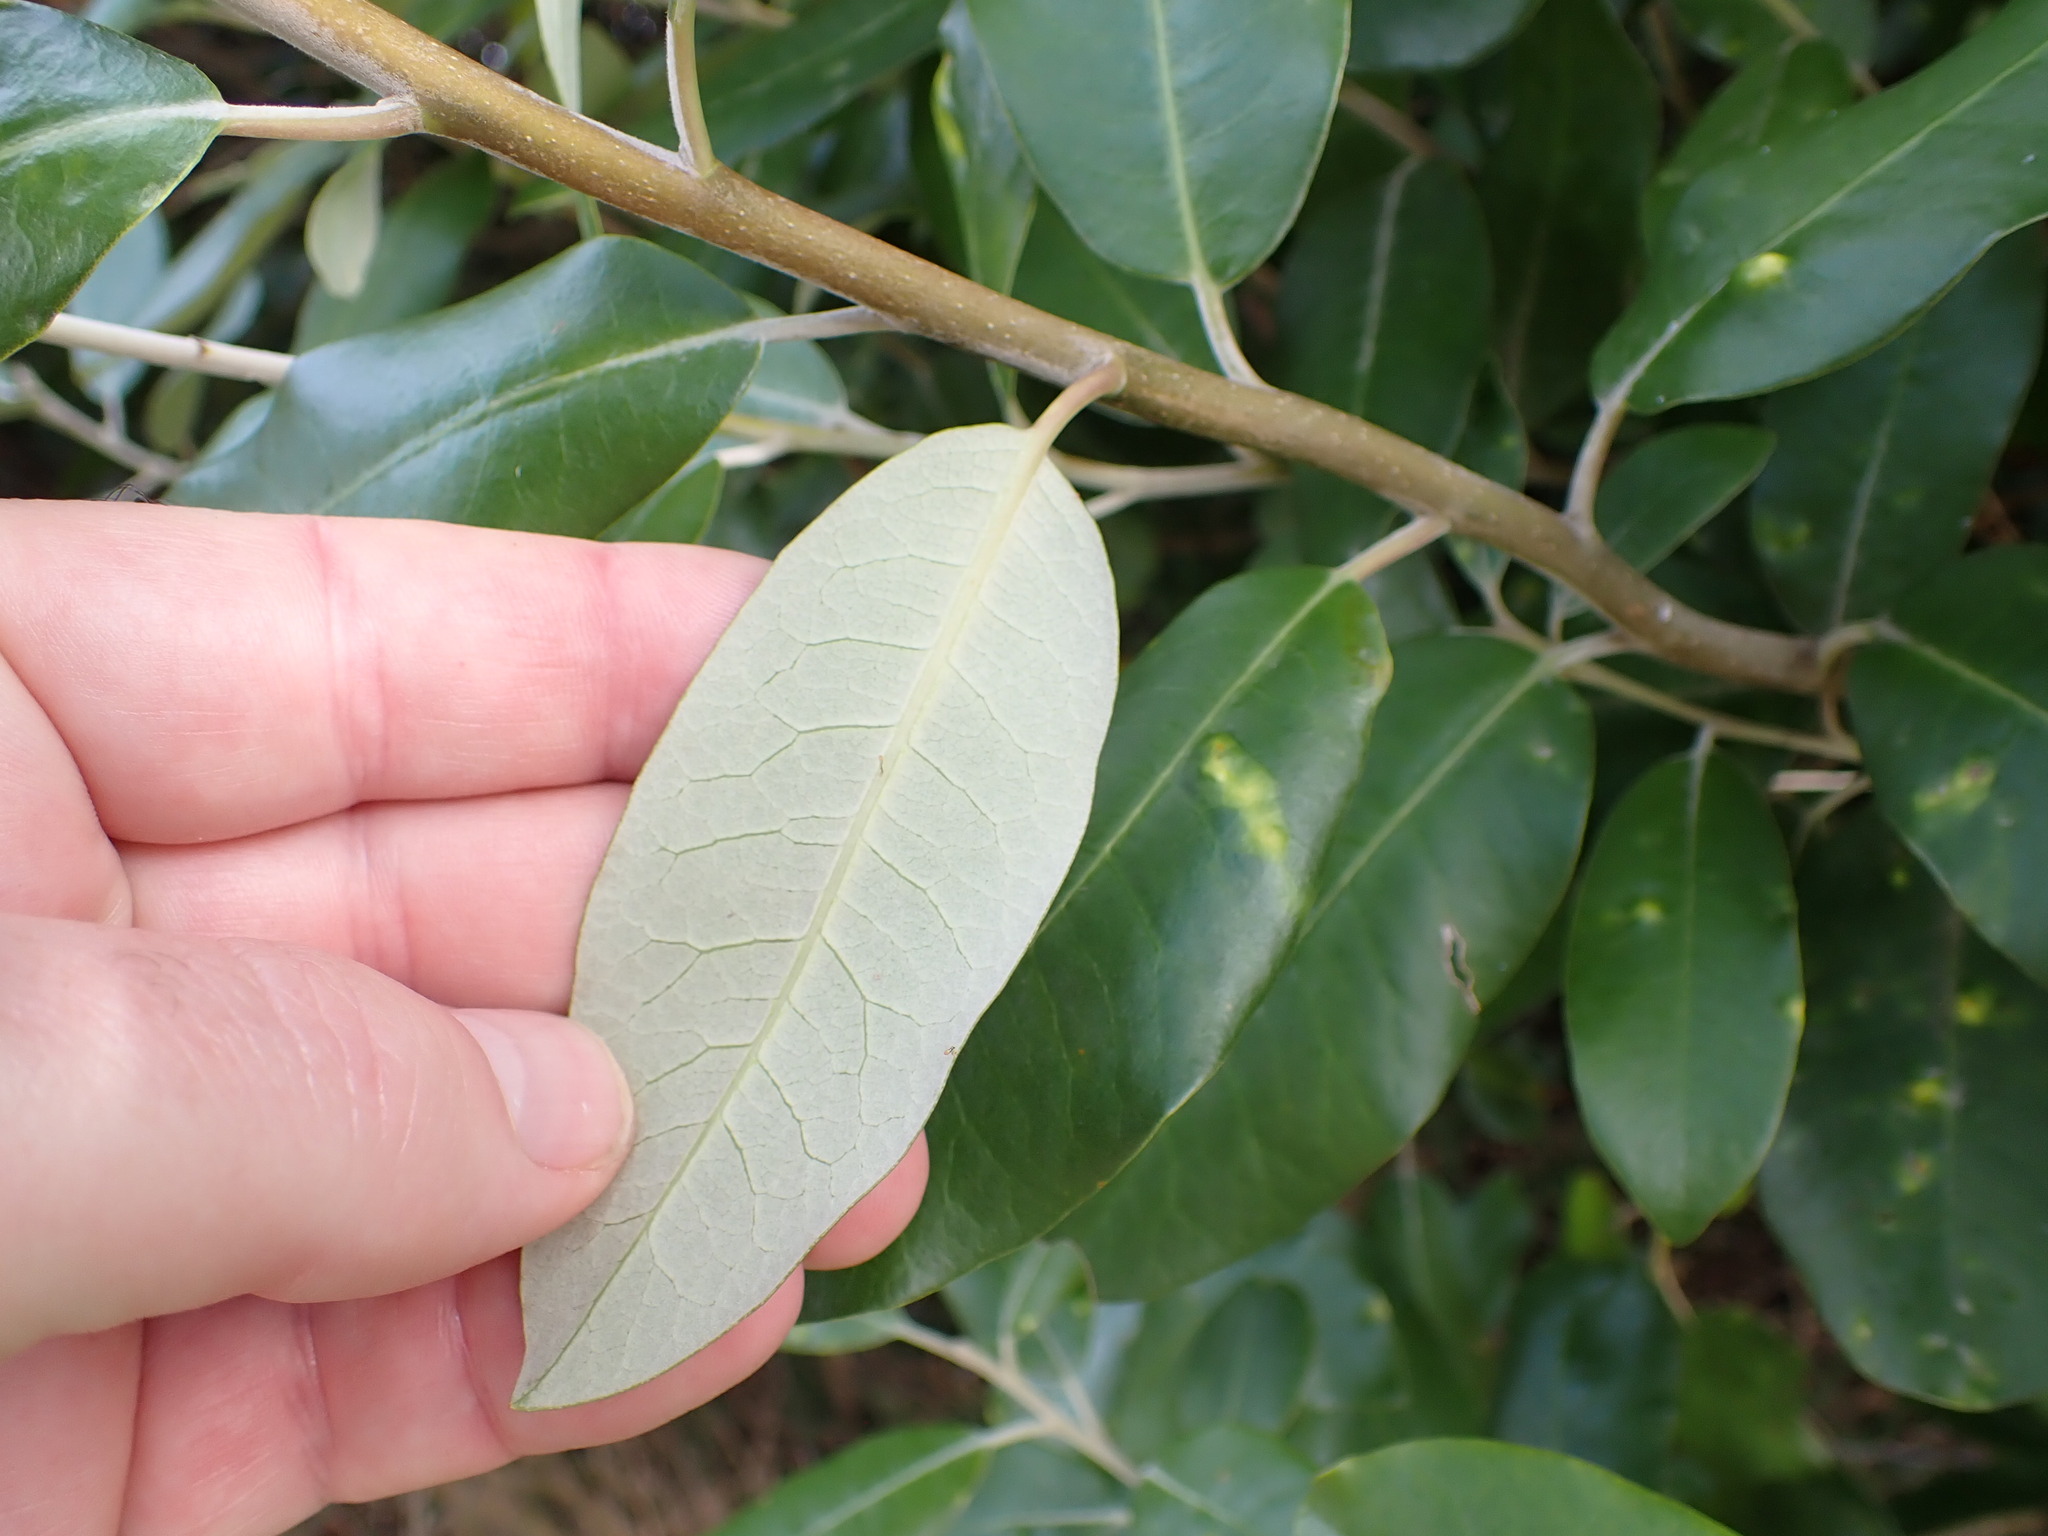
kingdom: Plantae
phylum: Tracheophyta
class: Magnoliopsida
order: Apiales
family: Pittosporaceae
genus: Pittosporum
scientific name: Pittosporum ralphii
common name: Ralph's desertwillow
